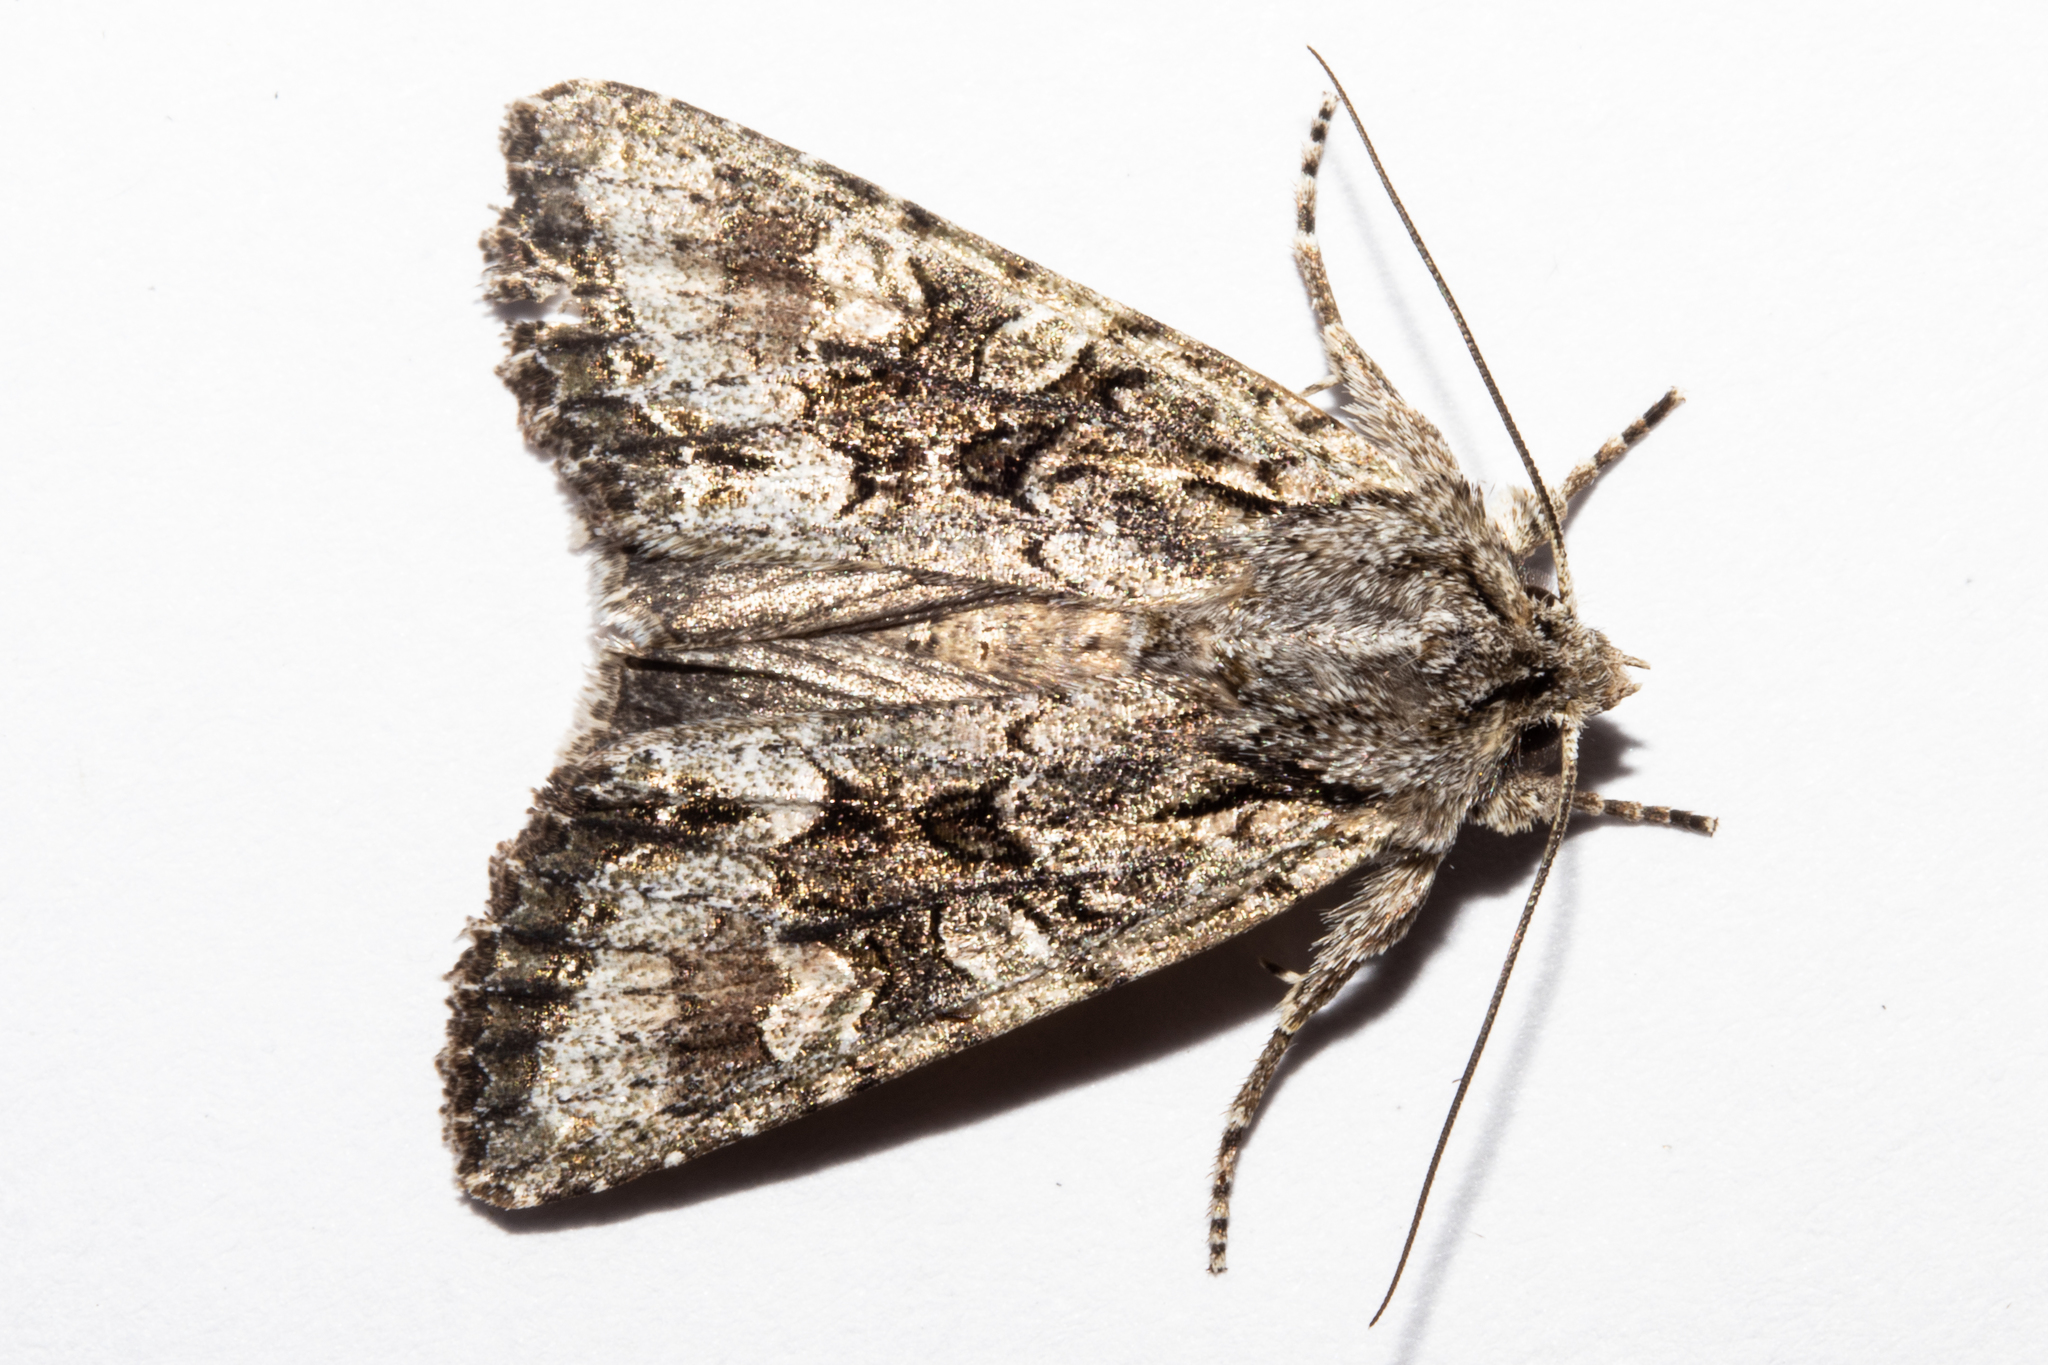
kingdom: Animalia
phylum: Arthropoda
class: Insecta
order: Lepidoptera
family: Noctuidae
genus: Ichneutica
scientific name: Ichneutica mutans
